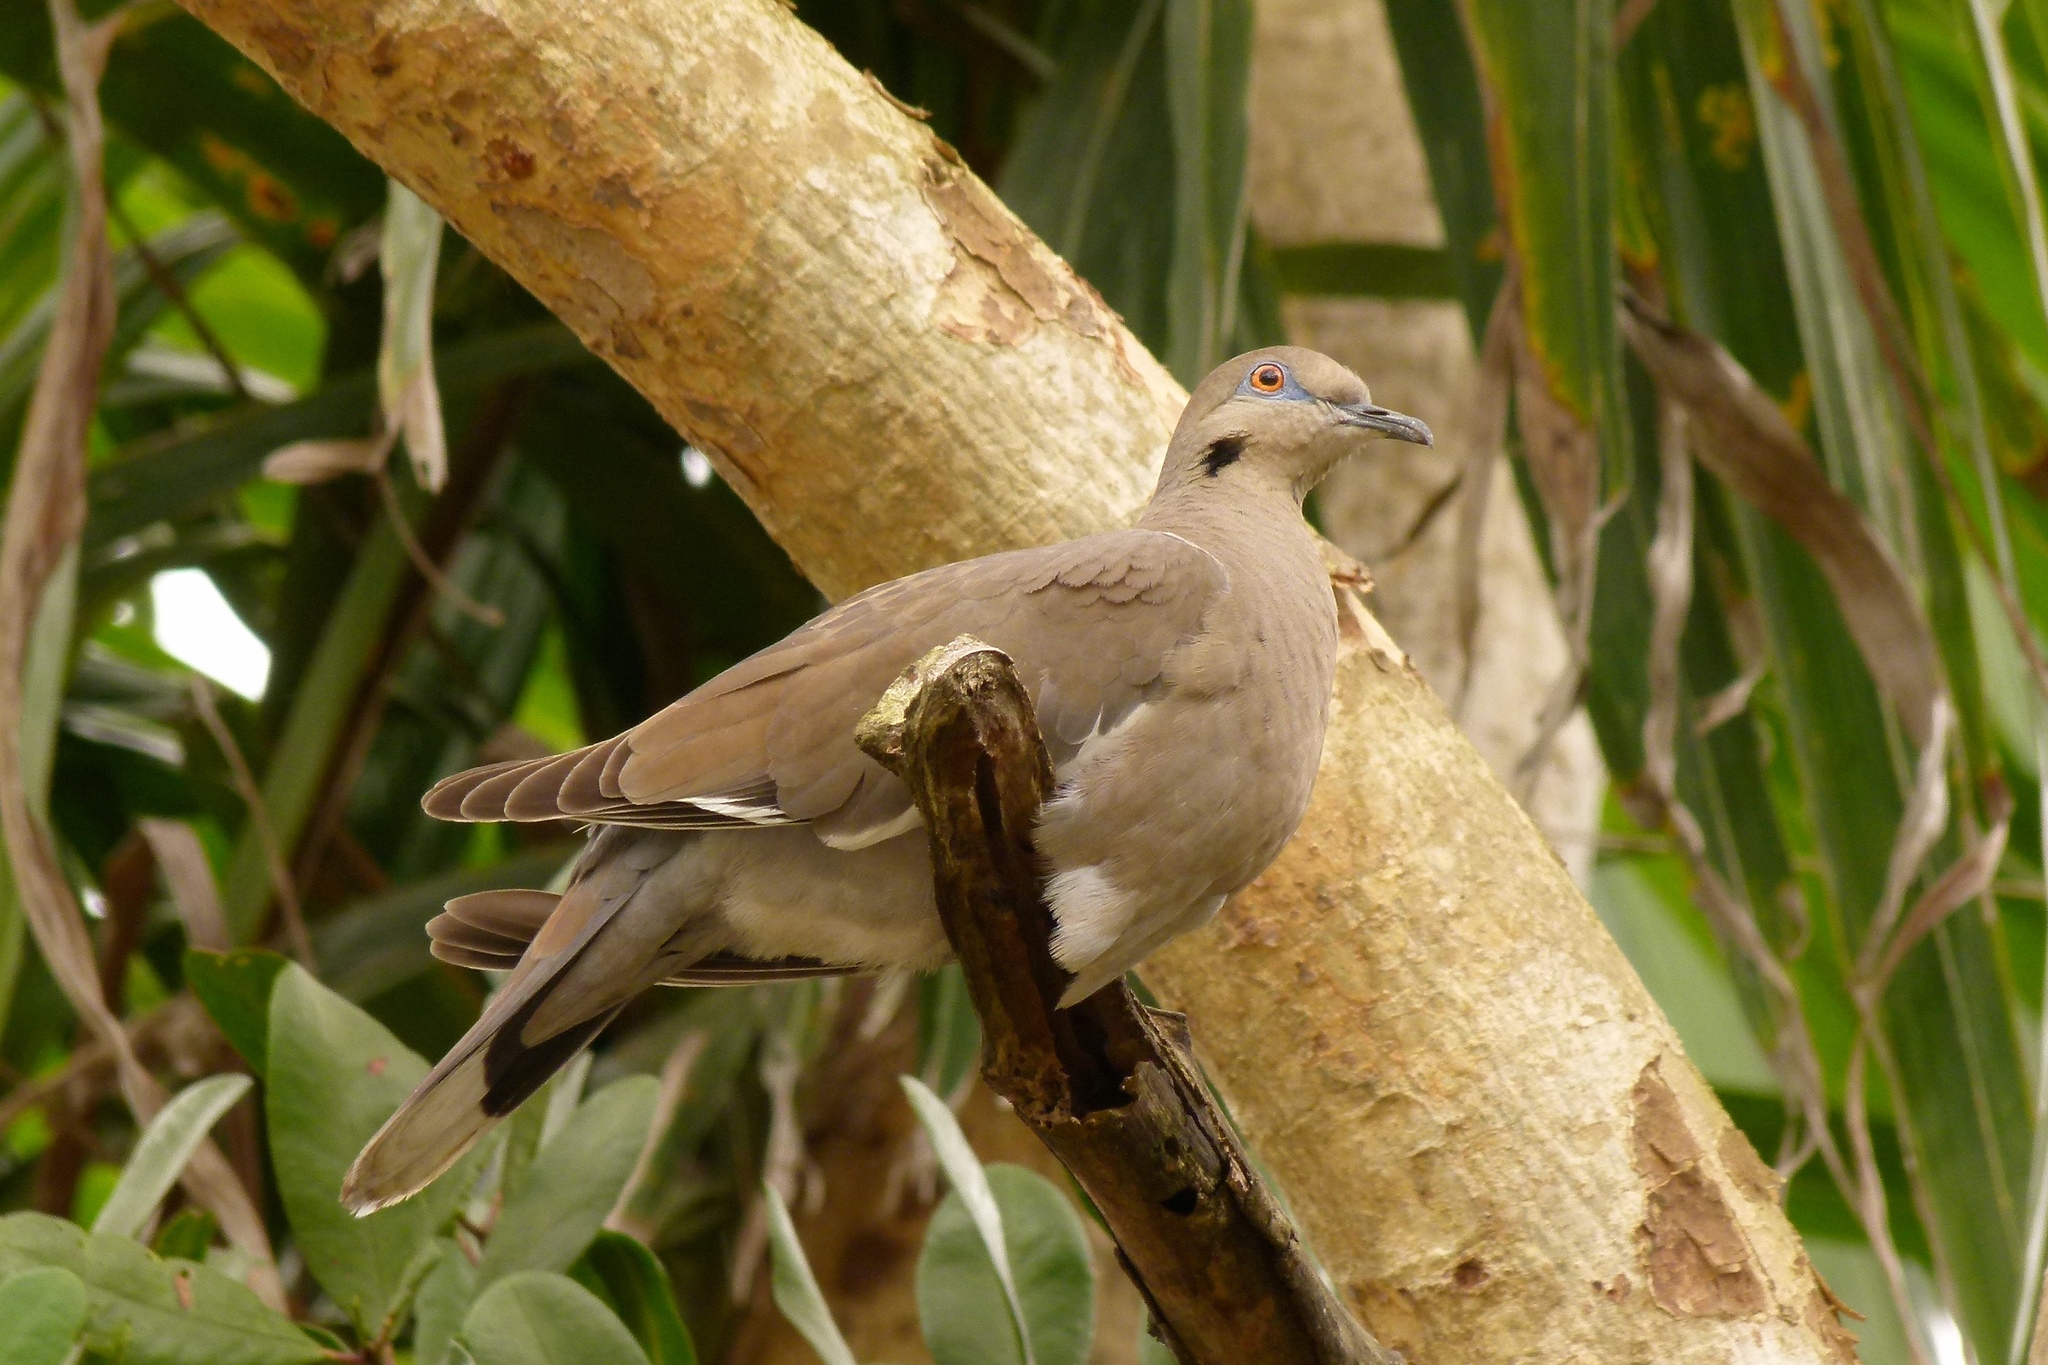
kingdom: Animalia
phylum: Chordata
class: Aves
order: Columbiformes
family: Columbidae
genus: Zenaida
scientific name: Zenaida aurita
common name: Zenaida dove
